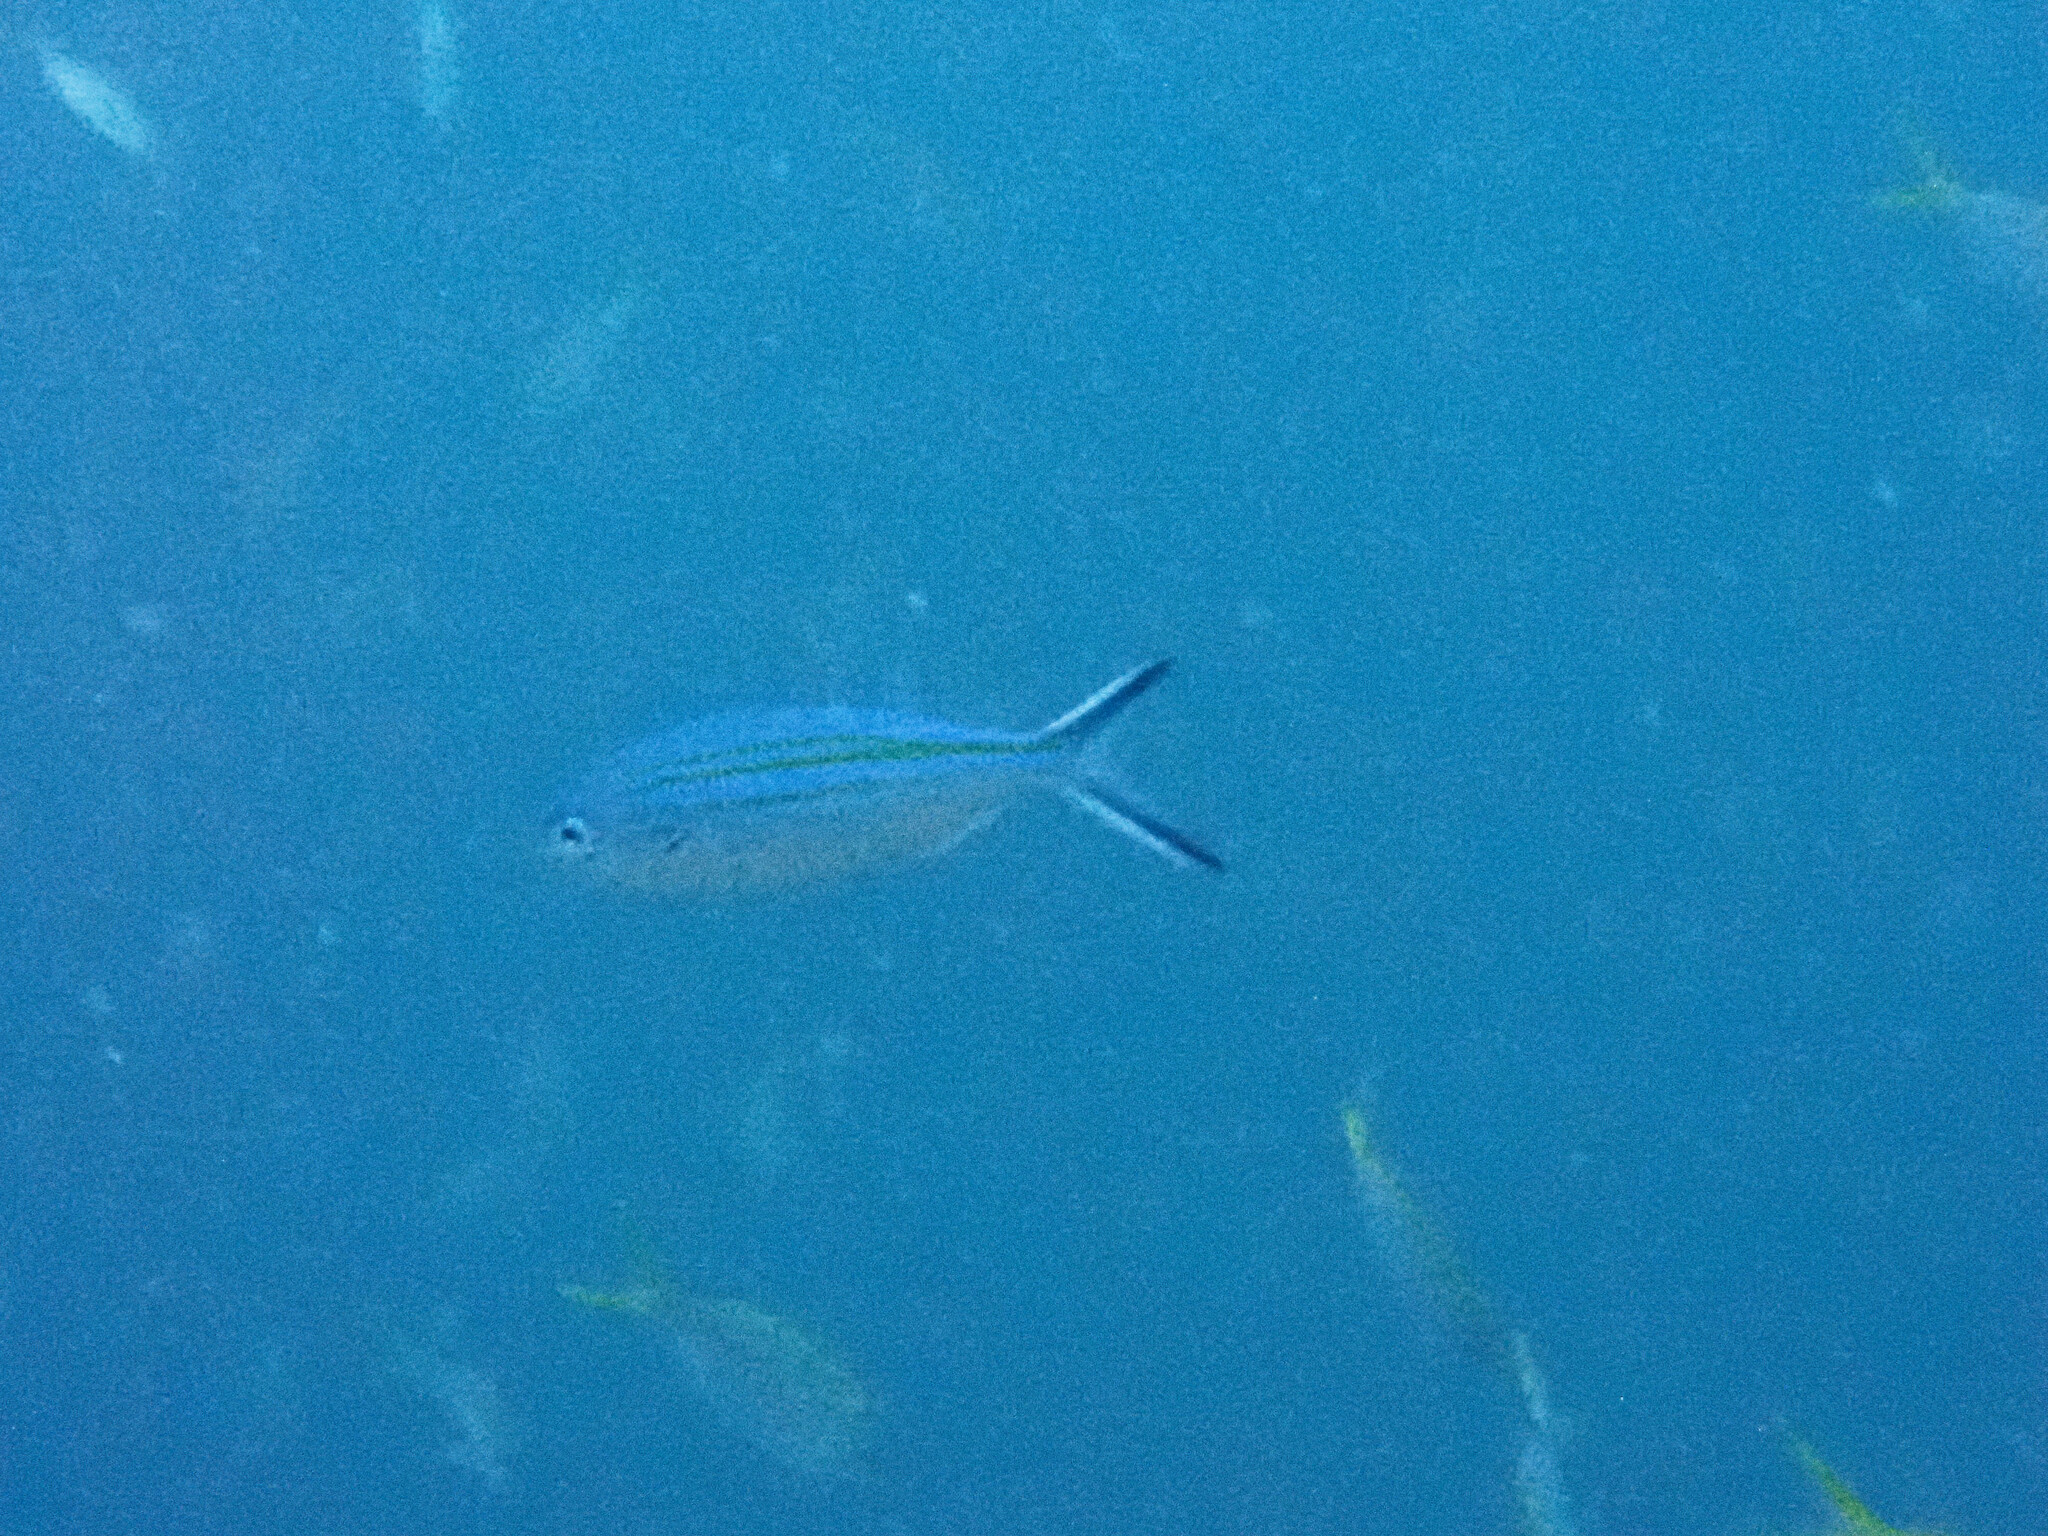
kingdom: Animalia
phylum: Chordata
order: Perciformes
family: Caesionidae
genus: Caesio
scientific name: Caesio caerulaurea
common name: Blue and gold fusilier
